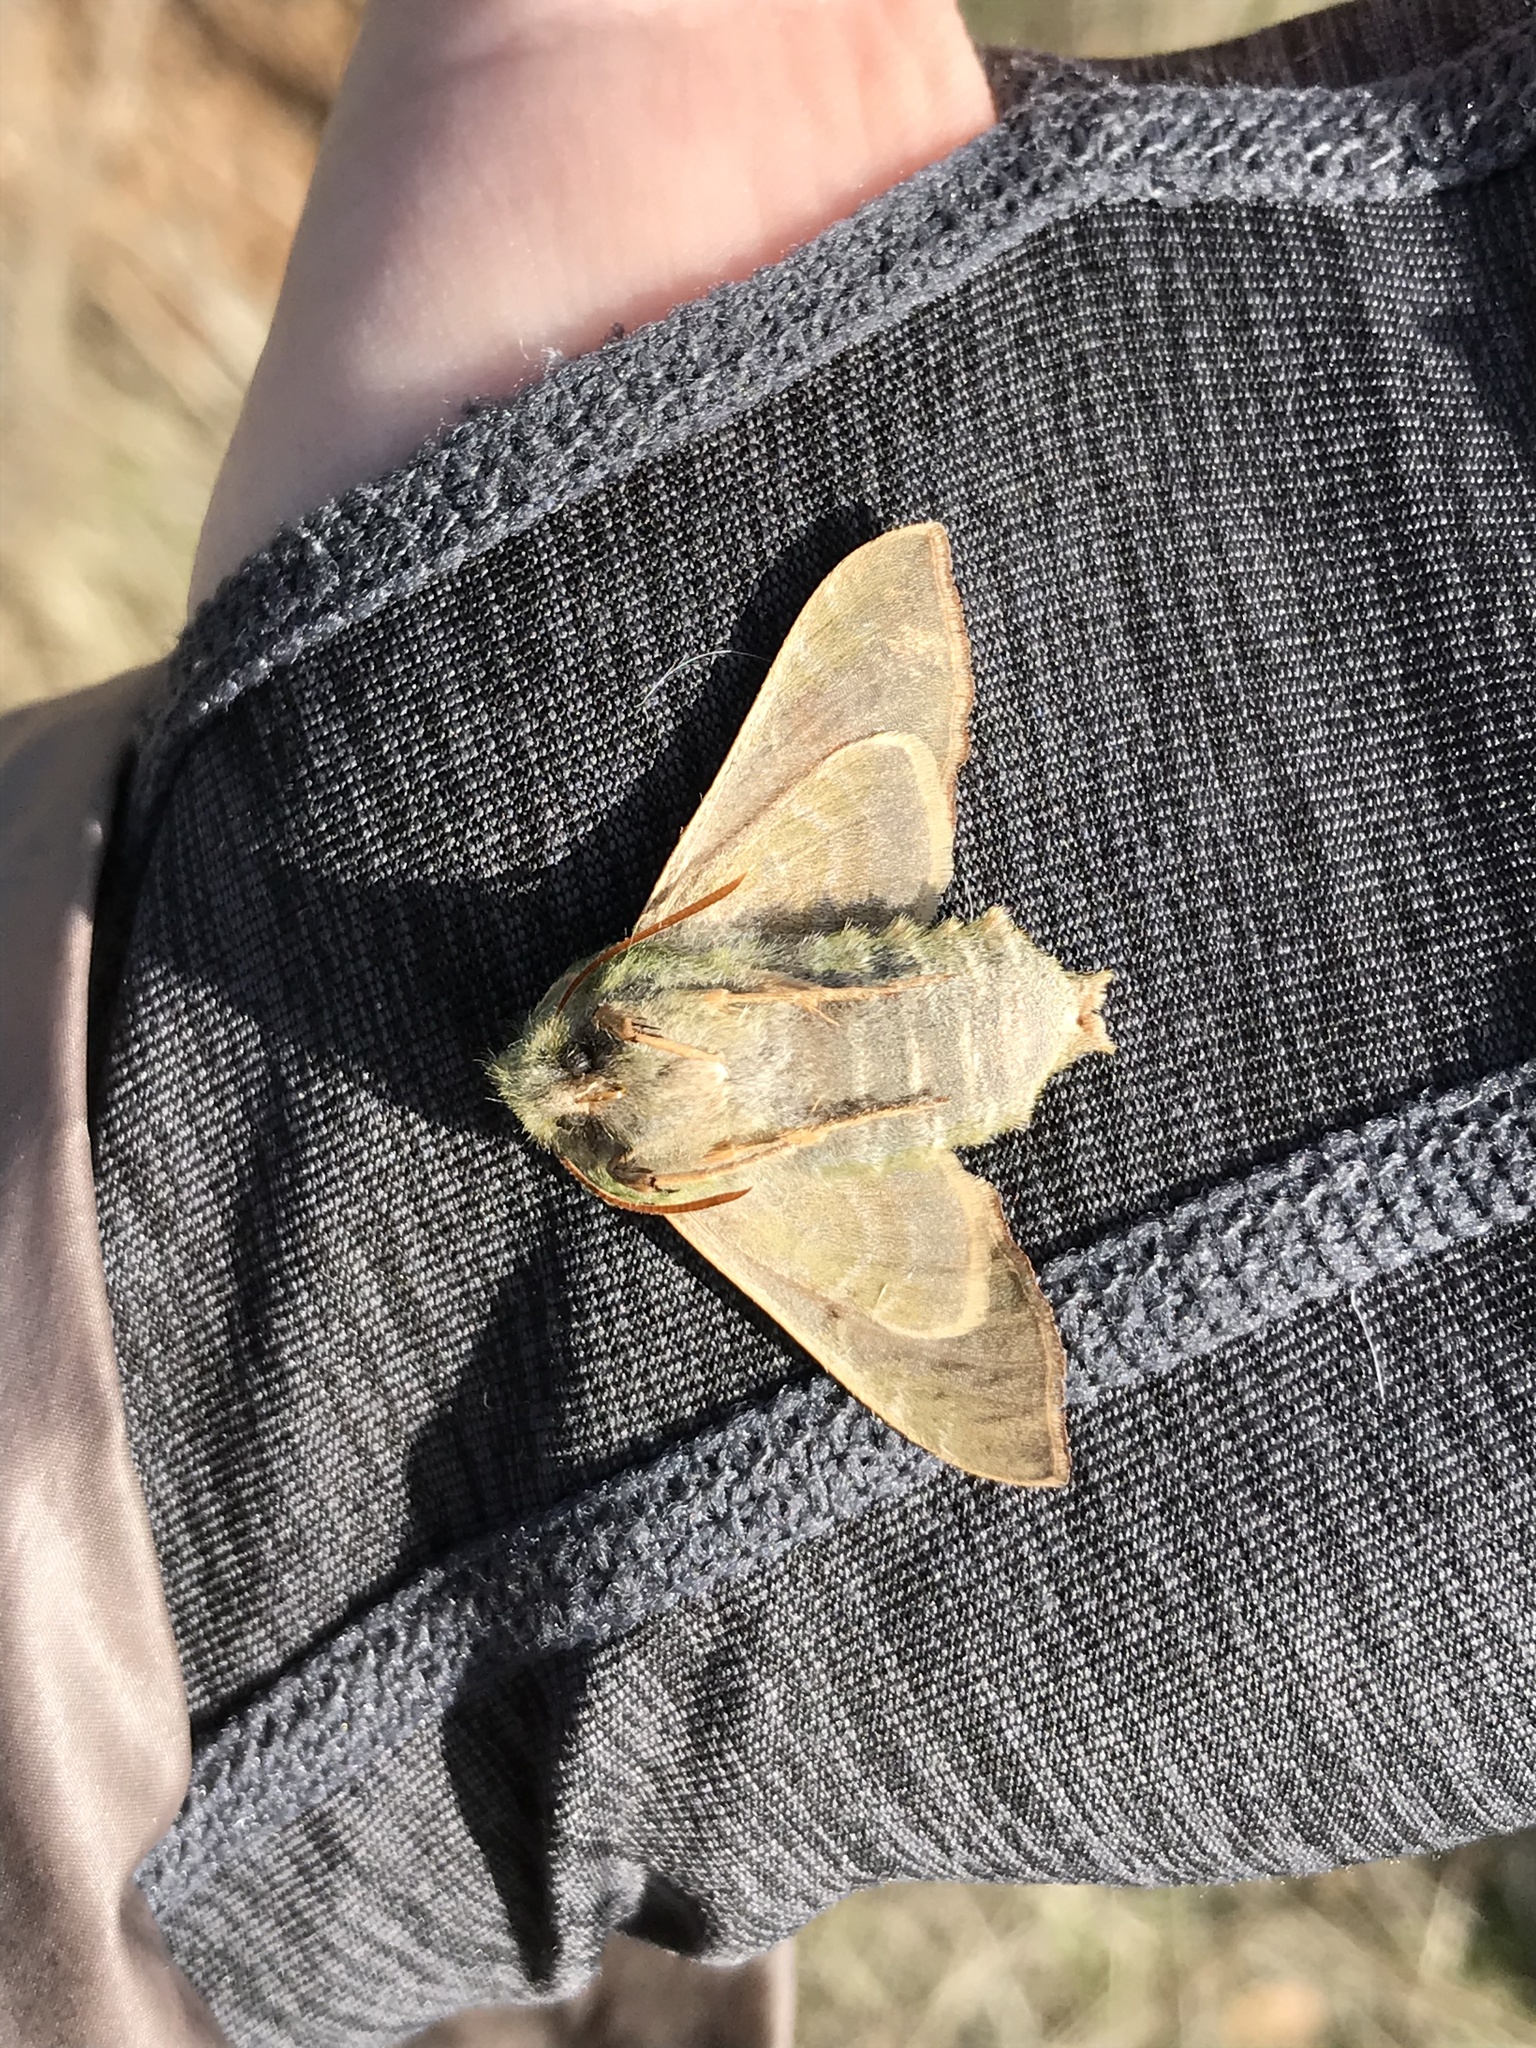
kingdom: Animalia
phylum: Arthropoda
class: Insecta
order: Lepidoptera
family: Sphingidae
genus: Proserpinus
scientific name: Proserpinus lucidus
